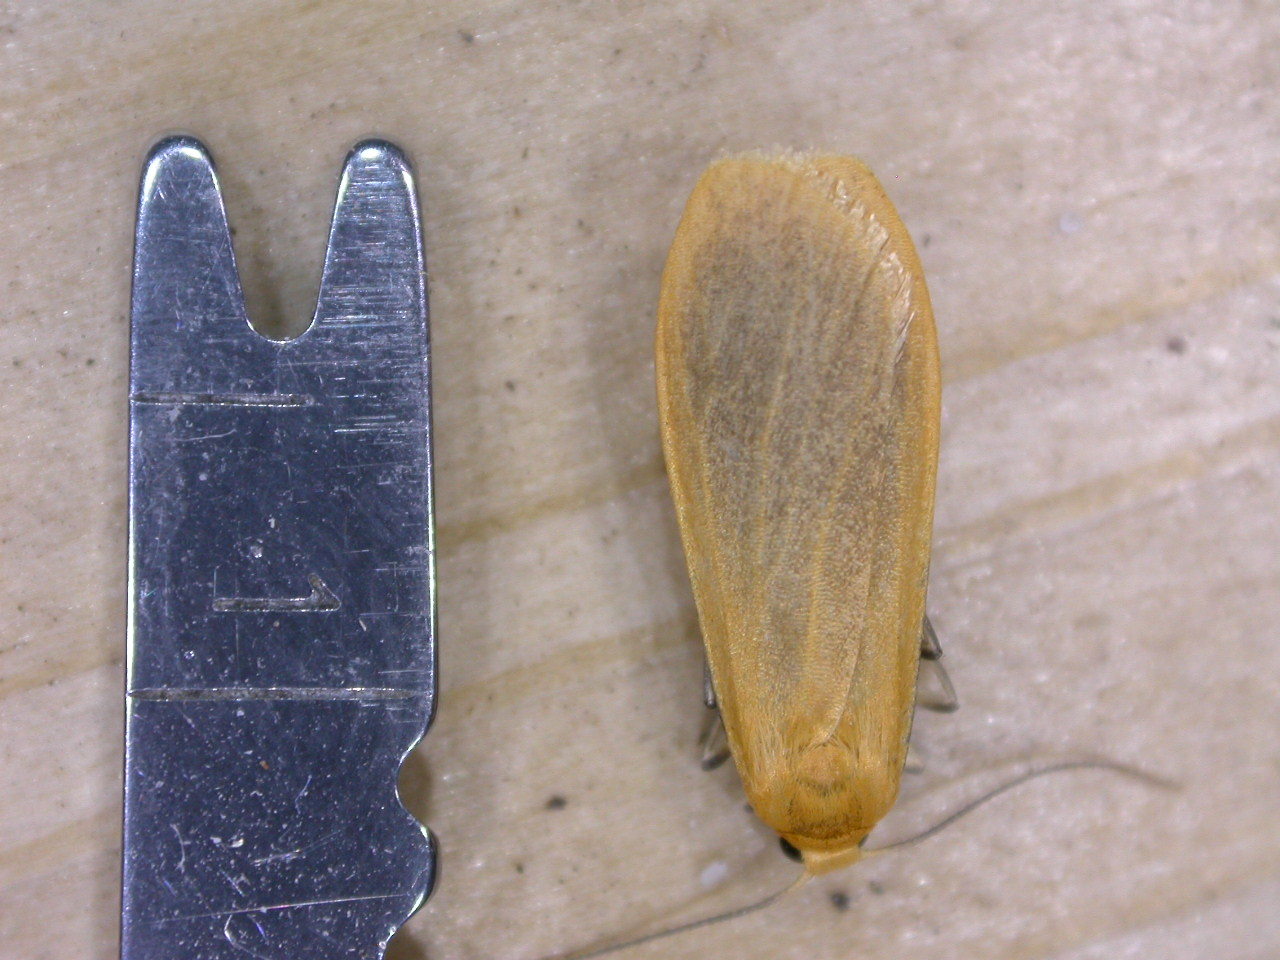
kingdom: Animalia
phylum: Arthropoda
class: Insecta
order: Lepidoptera
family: Erebidae
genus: Wittia
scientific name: Wittia sororcula
